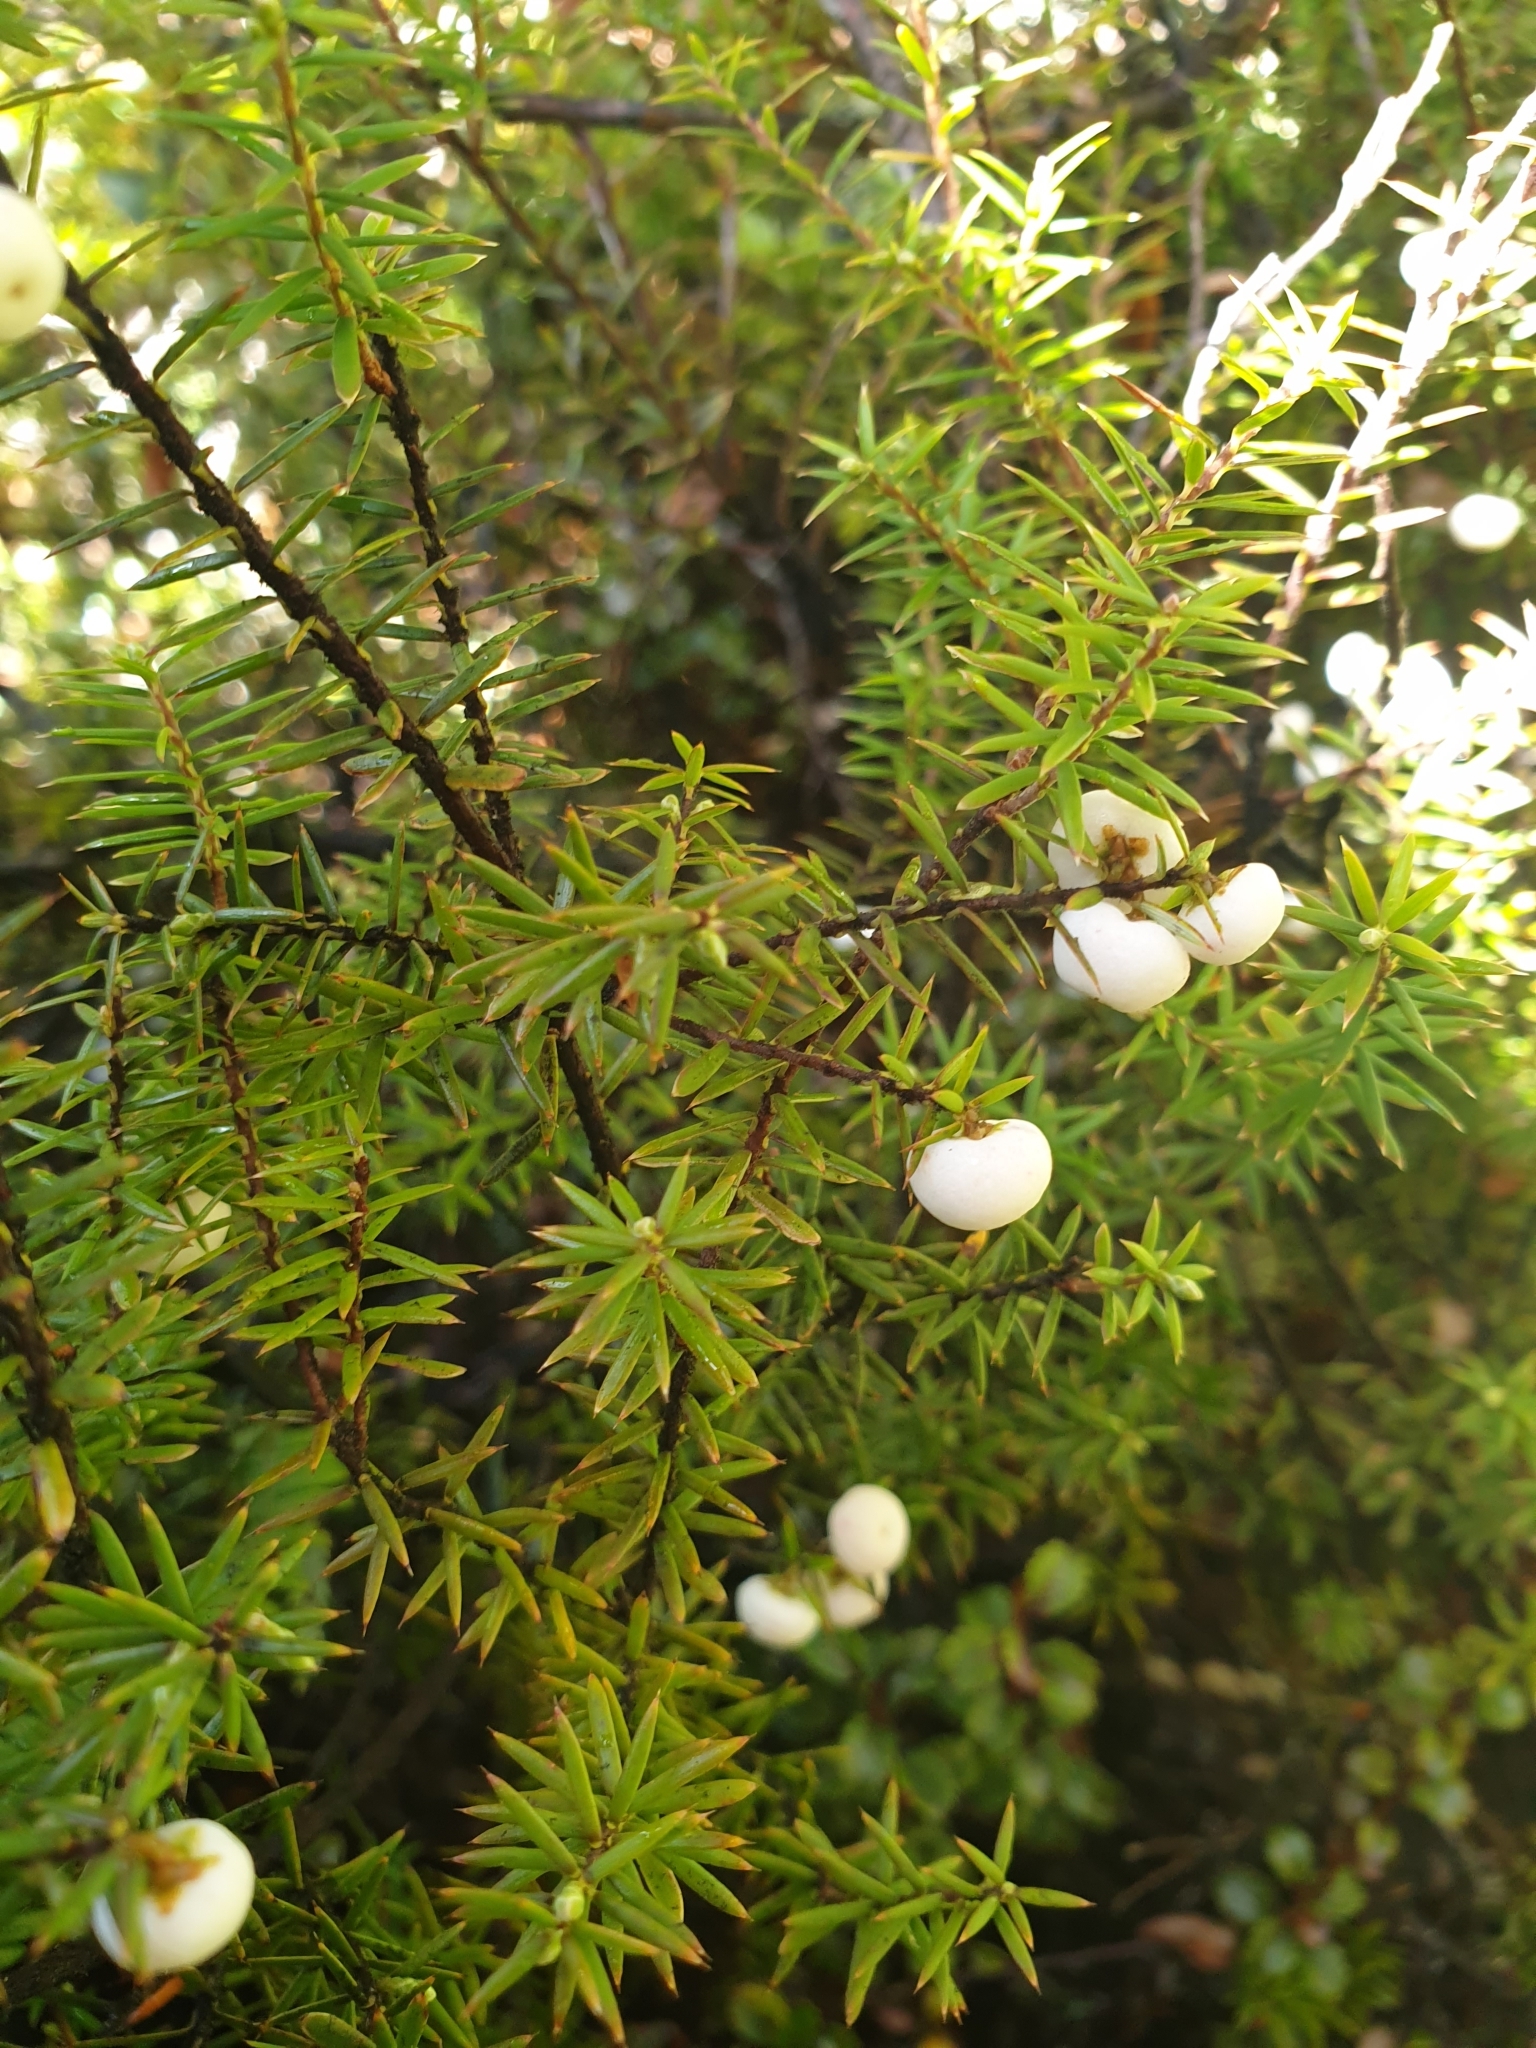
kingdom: Plantae
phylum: Tracheophyta
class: Magnoliopsida
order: Ericales
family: Ericaceae
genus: Leptecophylla
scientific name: Leptecophylla juniperina
